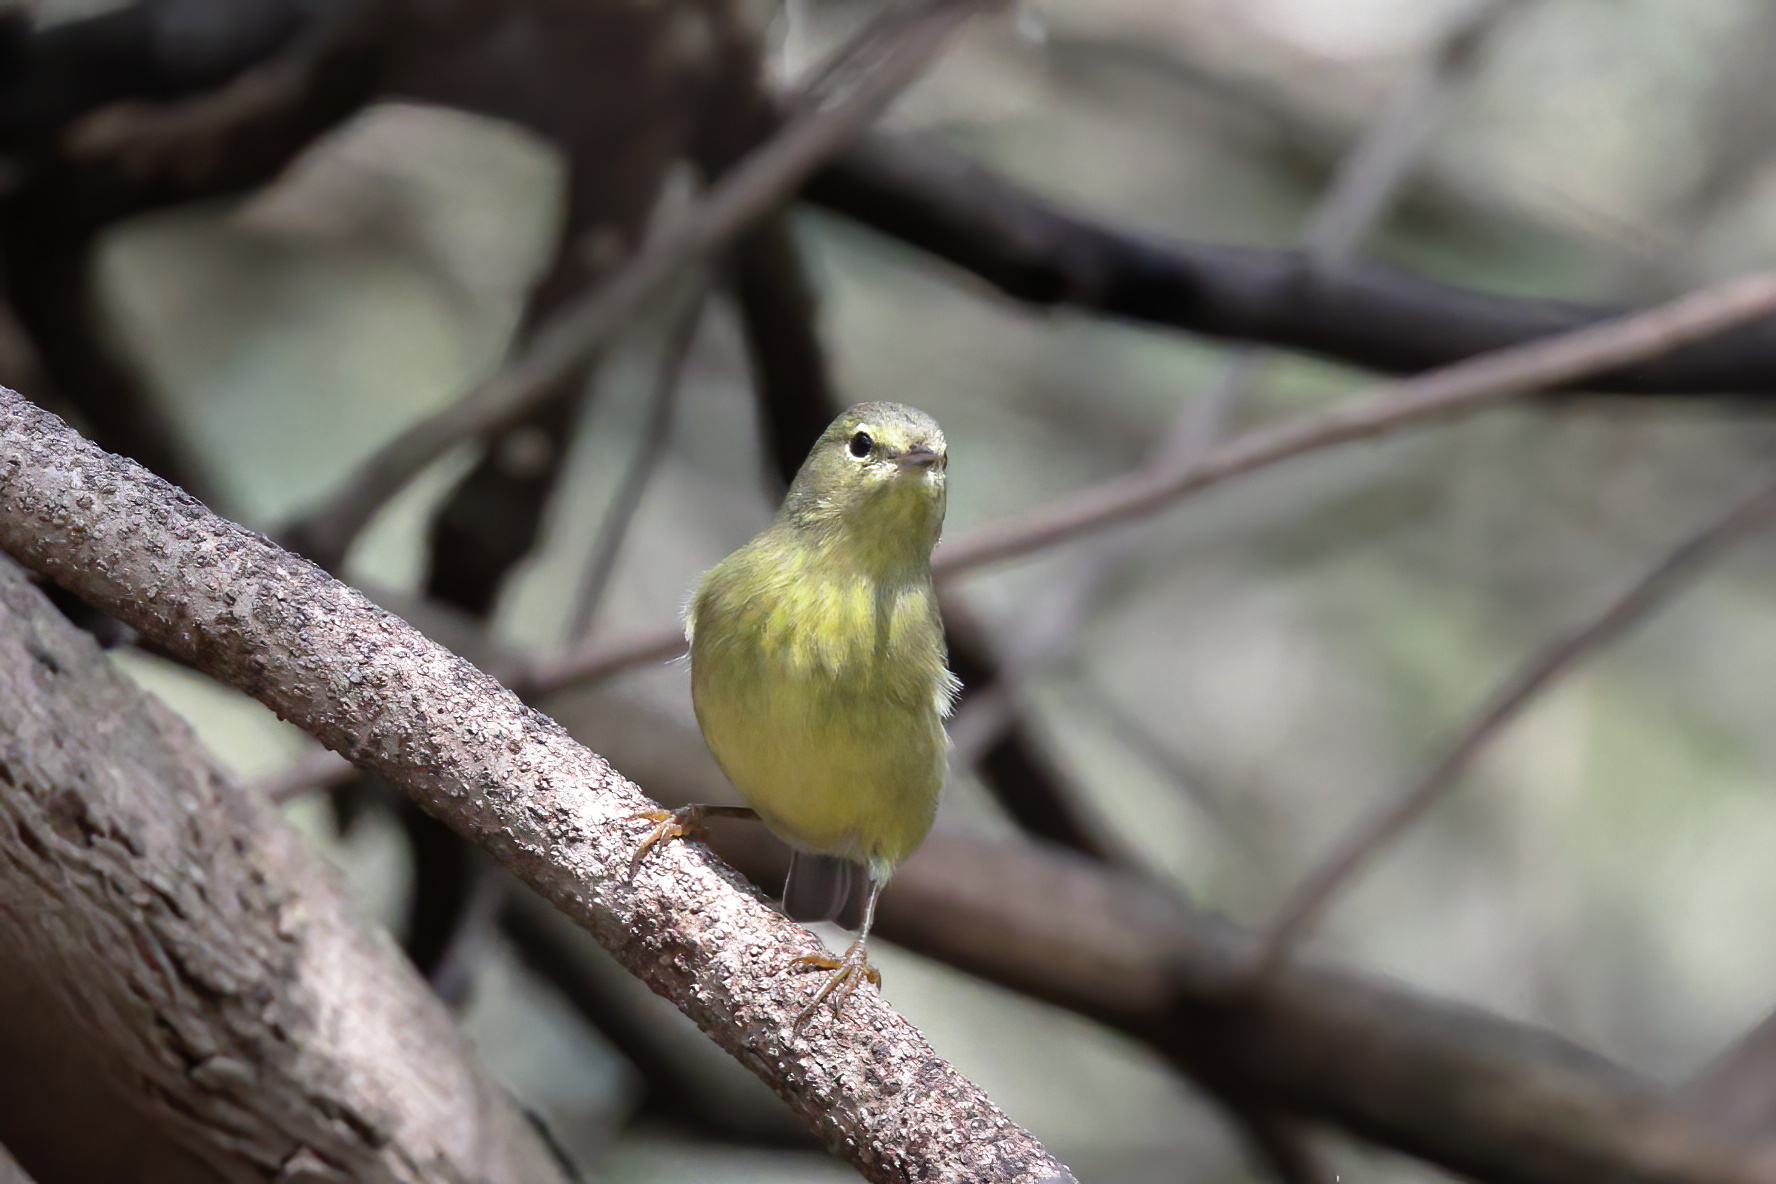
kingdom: Animalia
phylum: Chordata
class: Aves
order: Passeriformes
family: Parulidae
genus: Leiothlypis
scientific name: Leiothlypis celata
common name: Orange-crowned warbler
